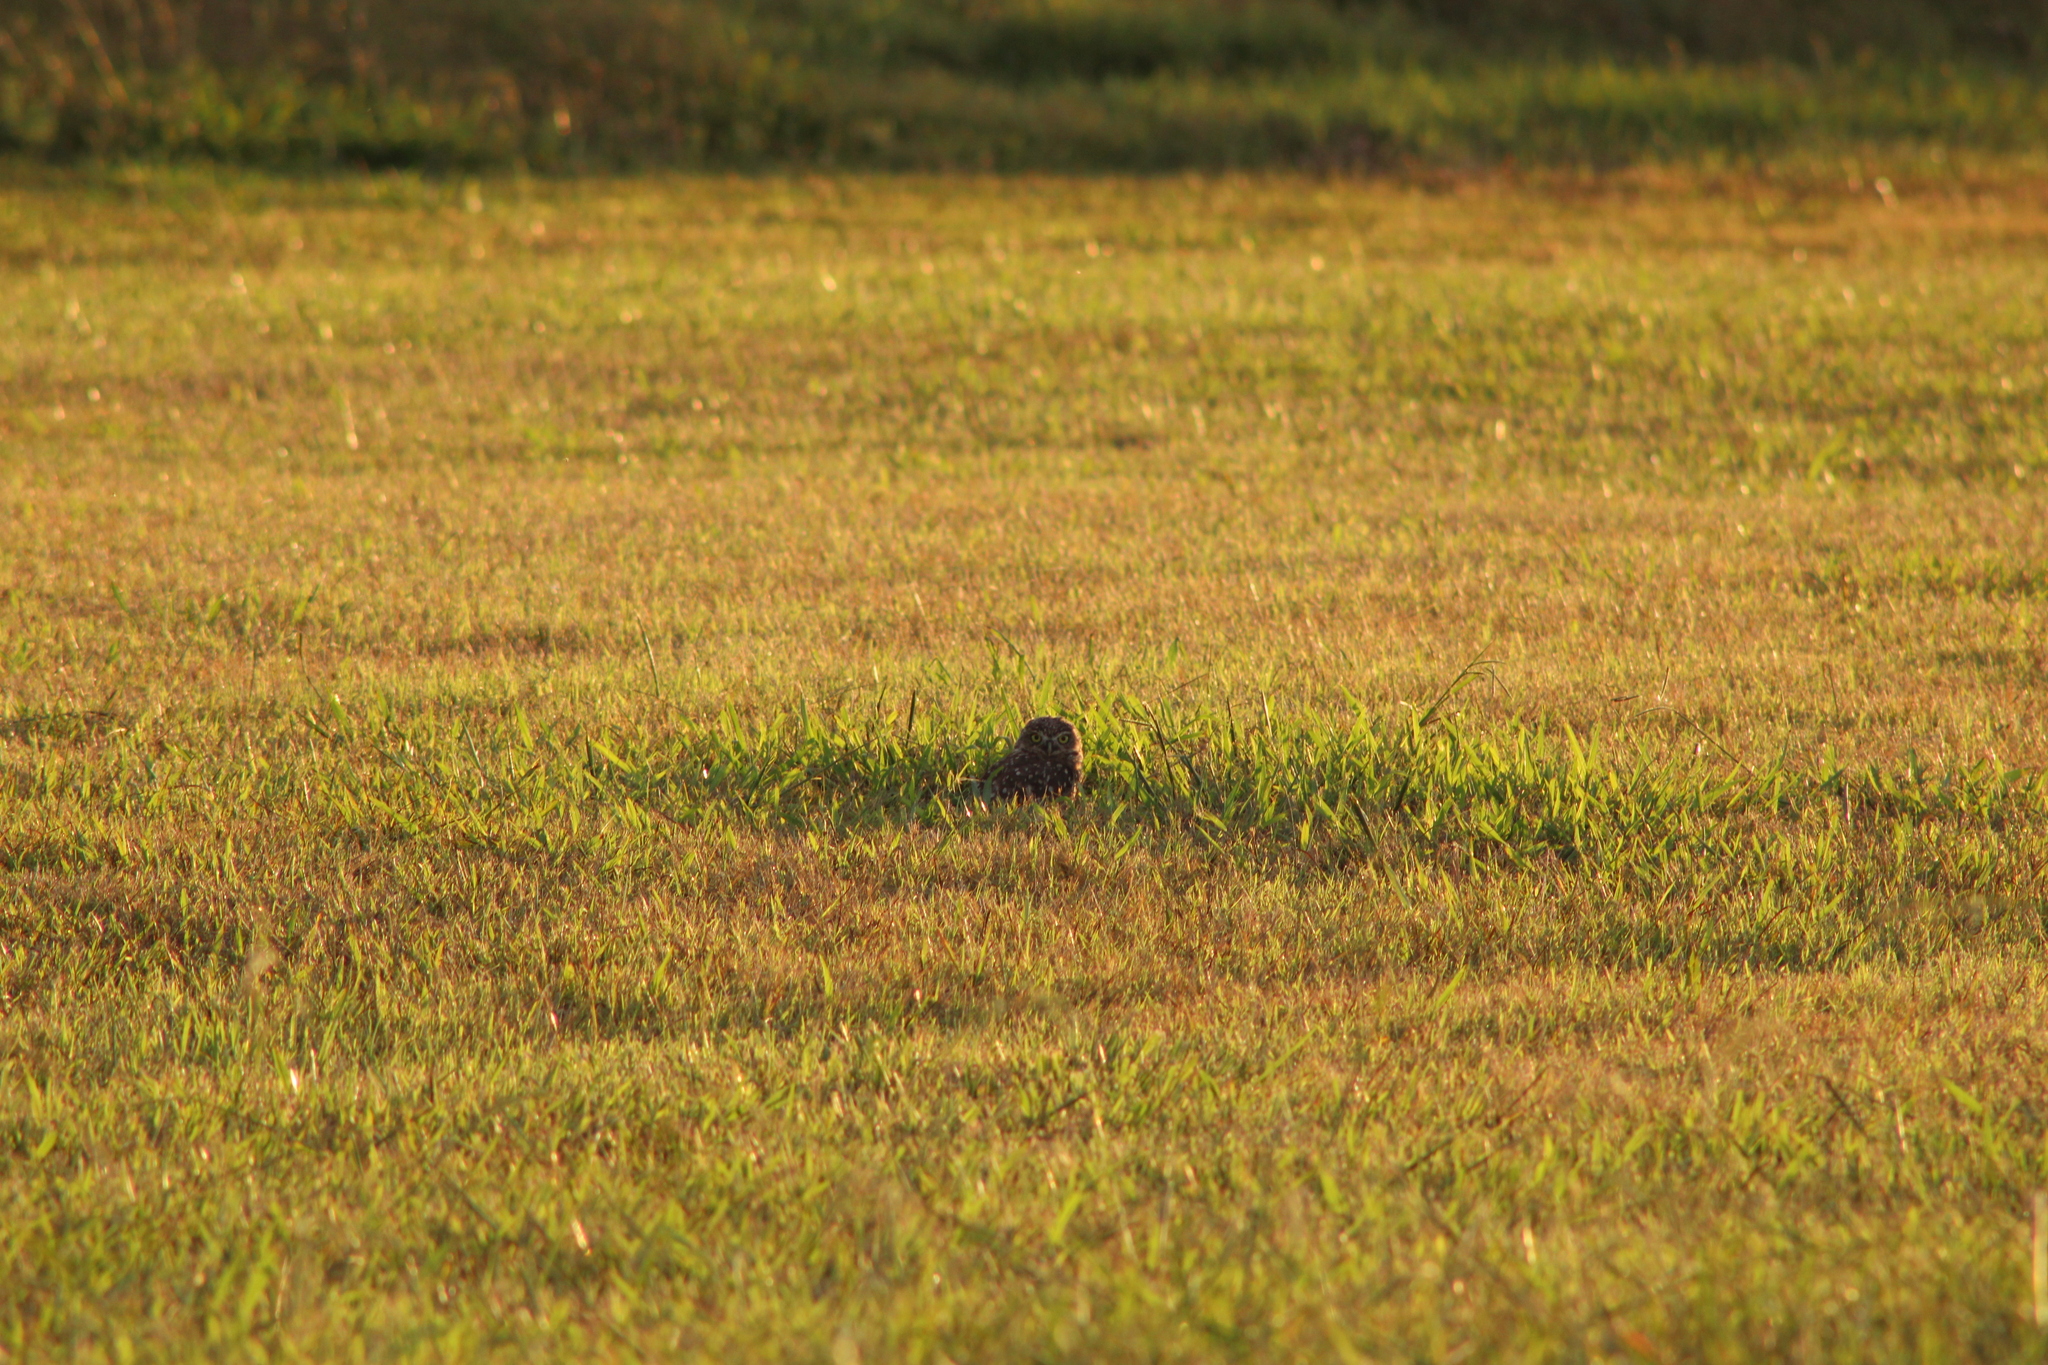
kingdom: Animalia
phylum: Chordata
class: Aves
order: Strigiformes
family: Strigidae
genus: Athene
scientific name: Athene cunicularia
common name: Burrowing owl
